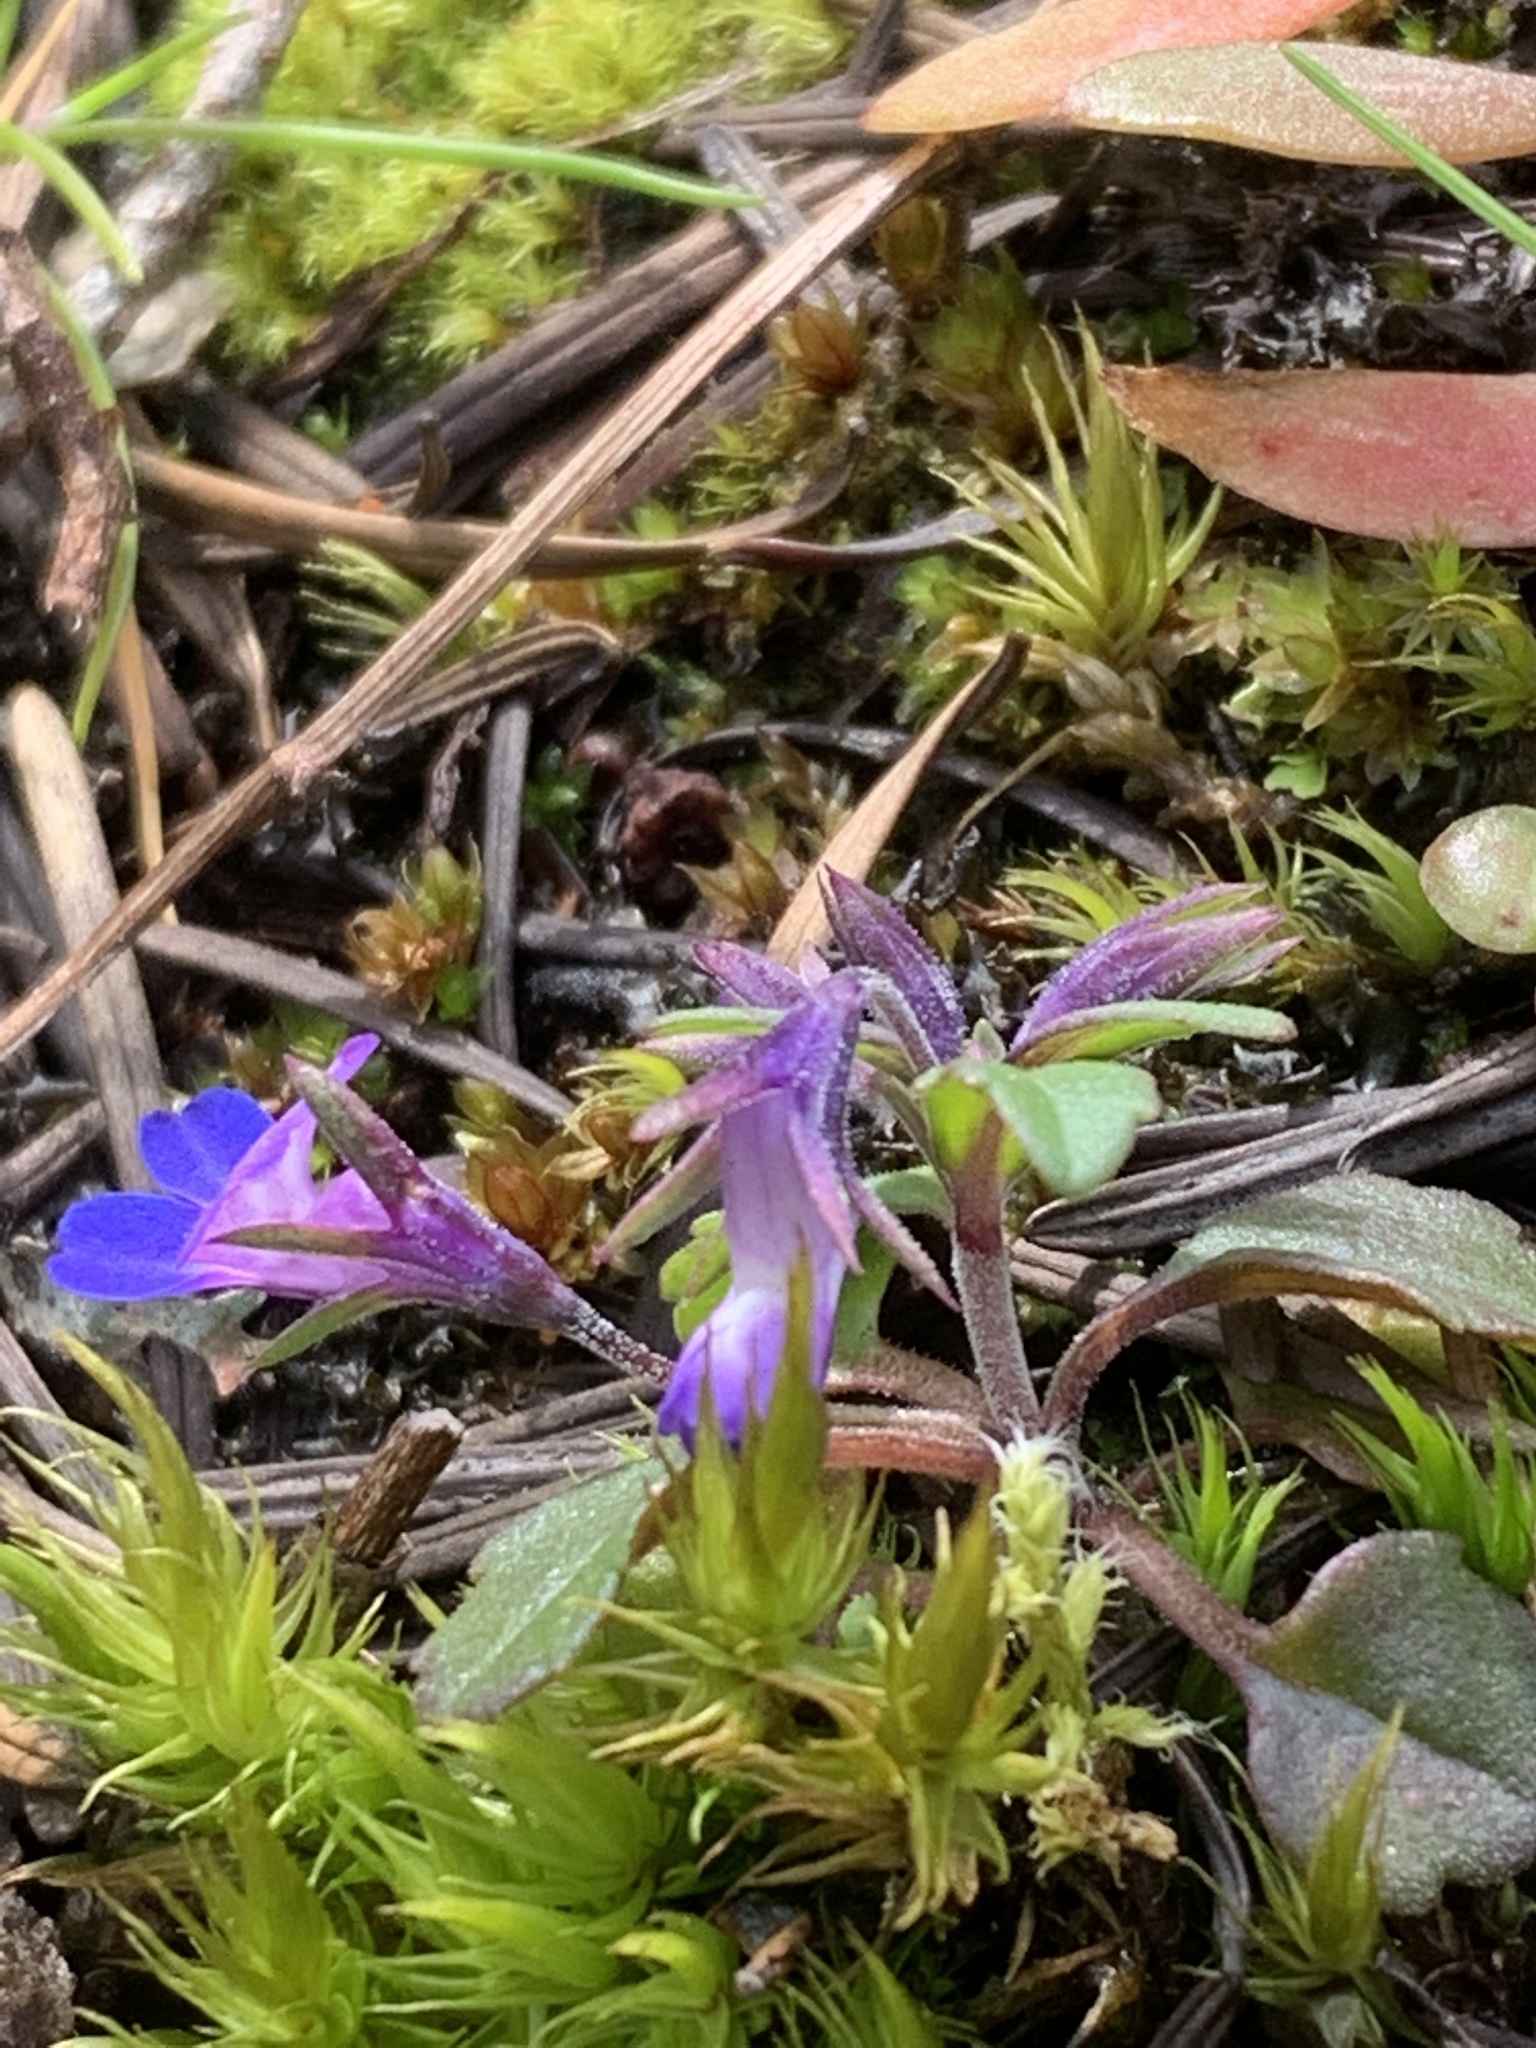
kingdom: Plantae
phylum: Tracheophyta
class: Magnoliopsida
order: Lamiales
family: Plantaginaceae
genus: Collinsia
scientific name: Collinsia parviflora
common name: Blue-lips
